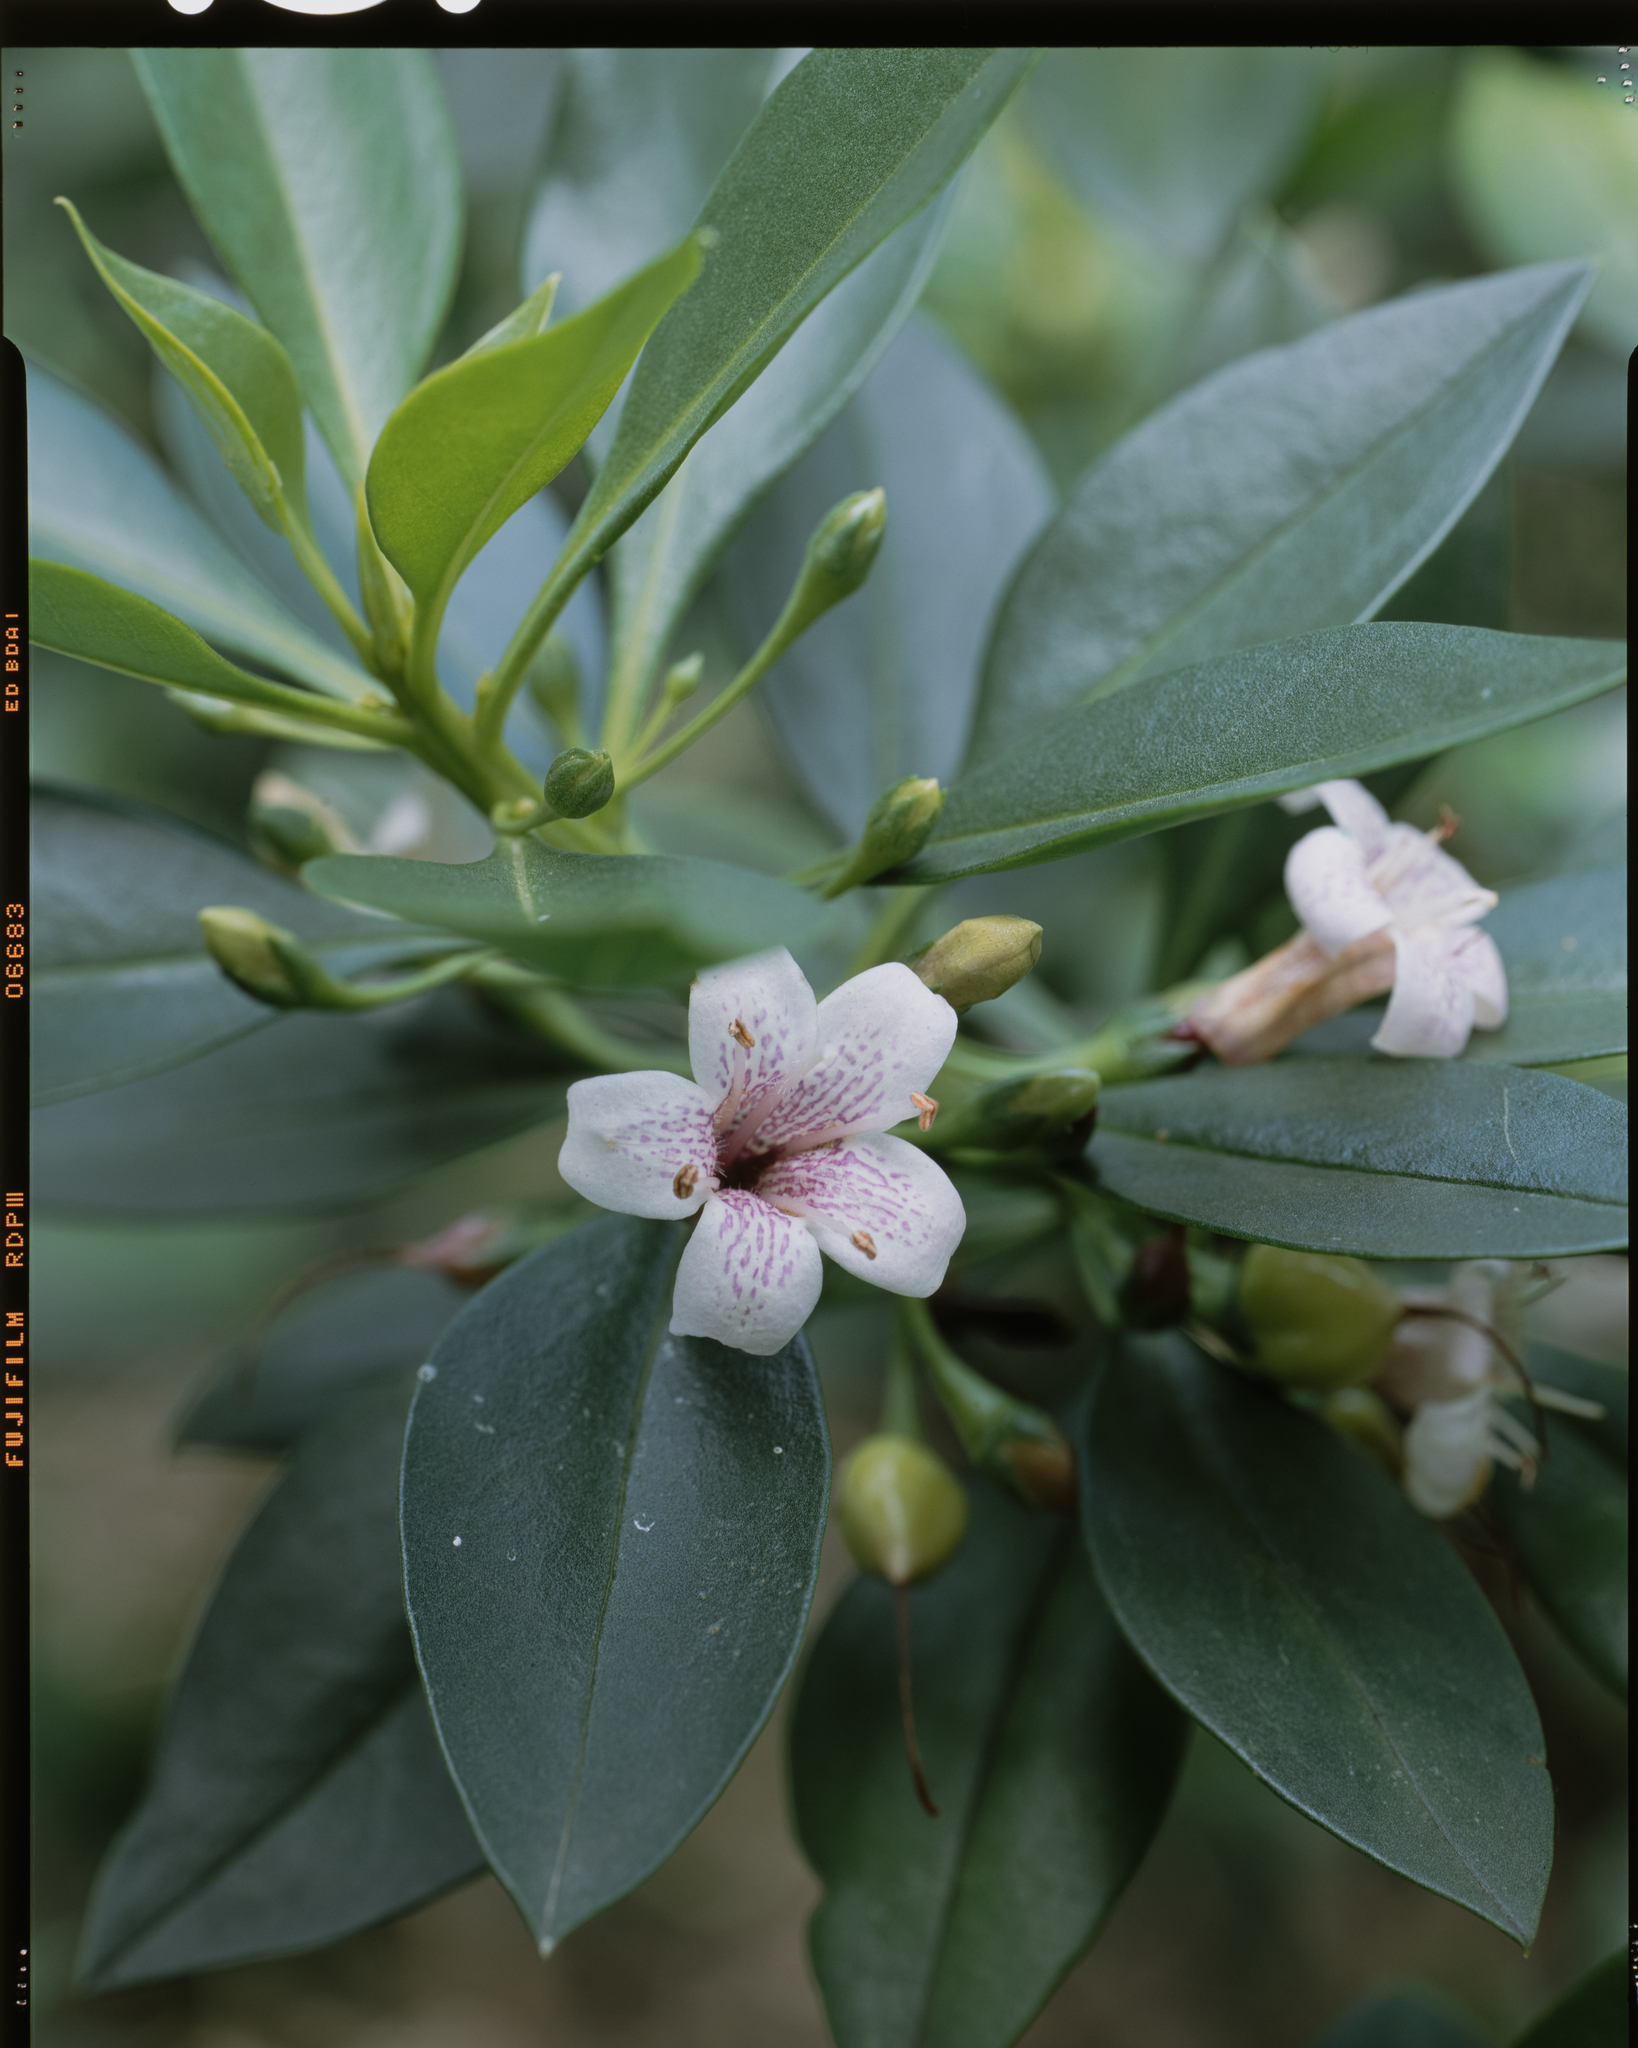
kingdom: Plantae
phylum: Tracheophyta
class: Magnoliopsida
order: Lamiales
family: Scrophulariaceae
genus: Myoporum
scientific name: Myoporum bontioides
